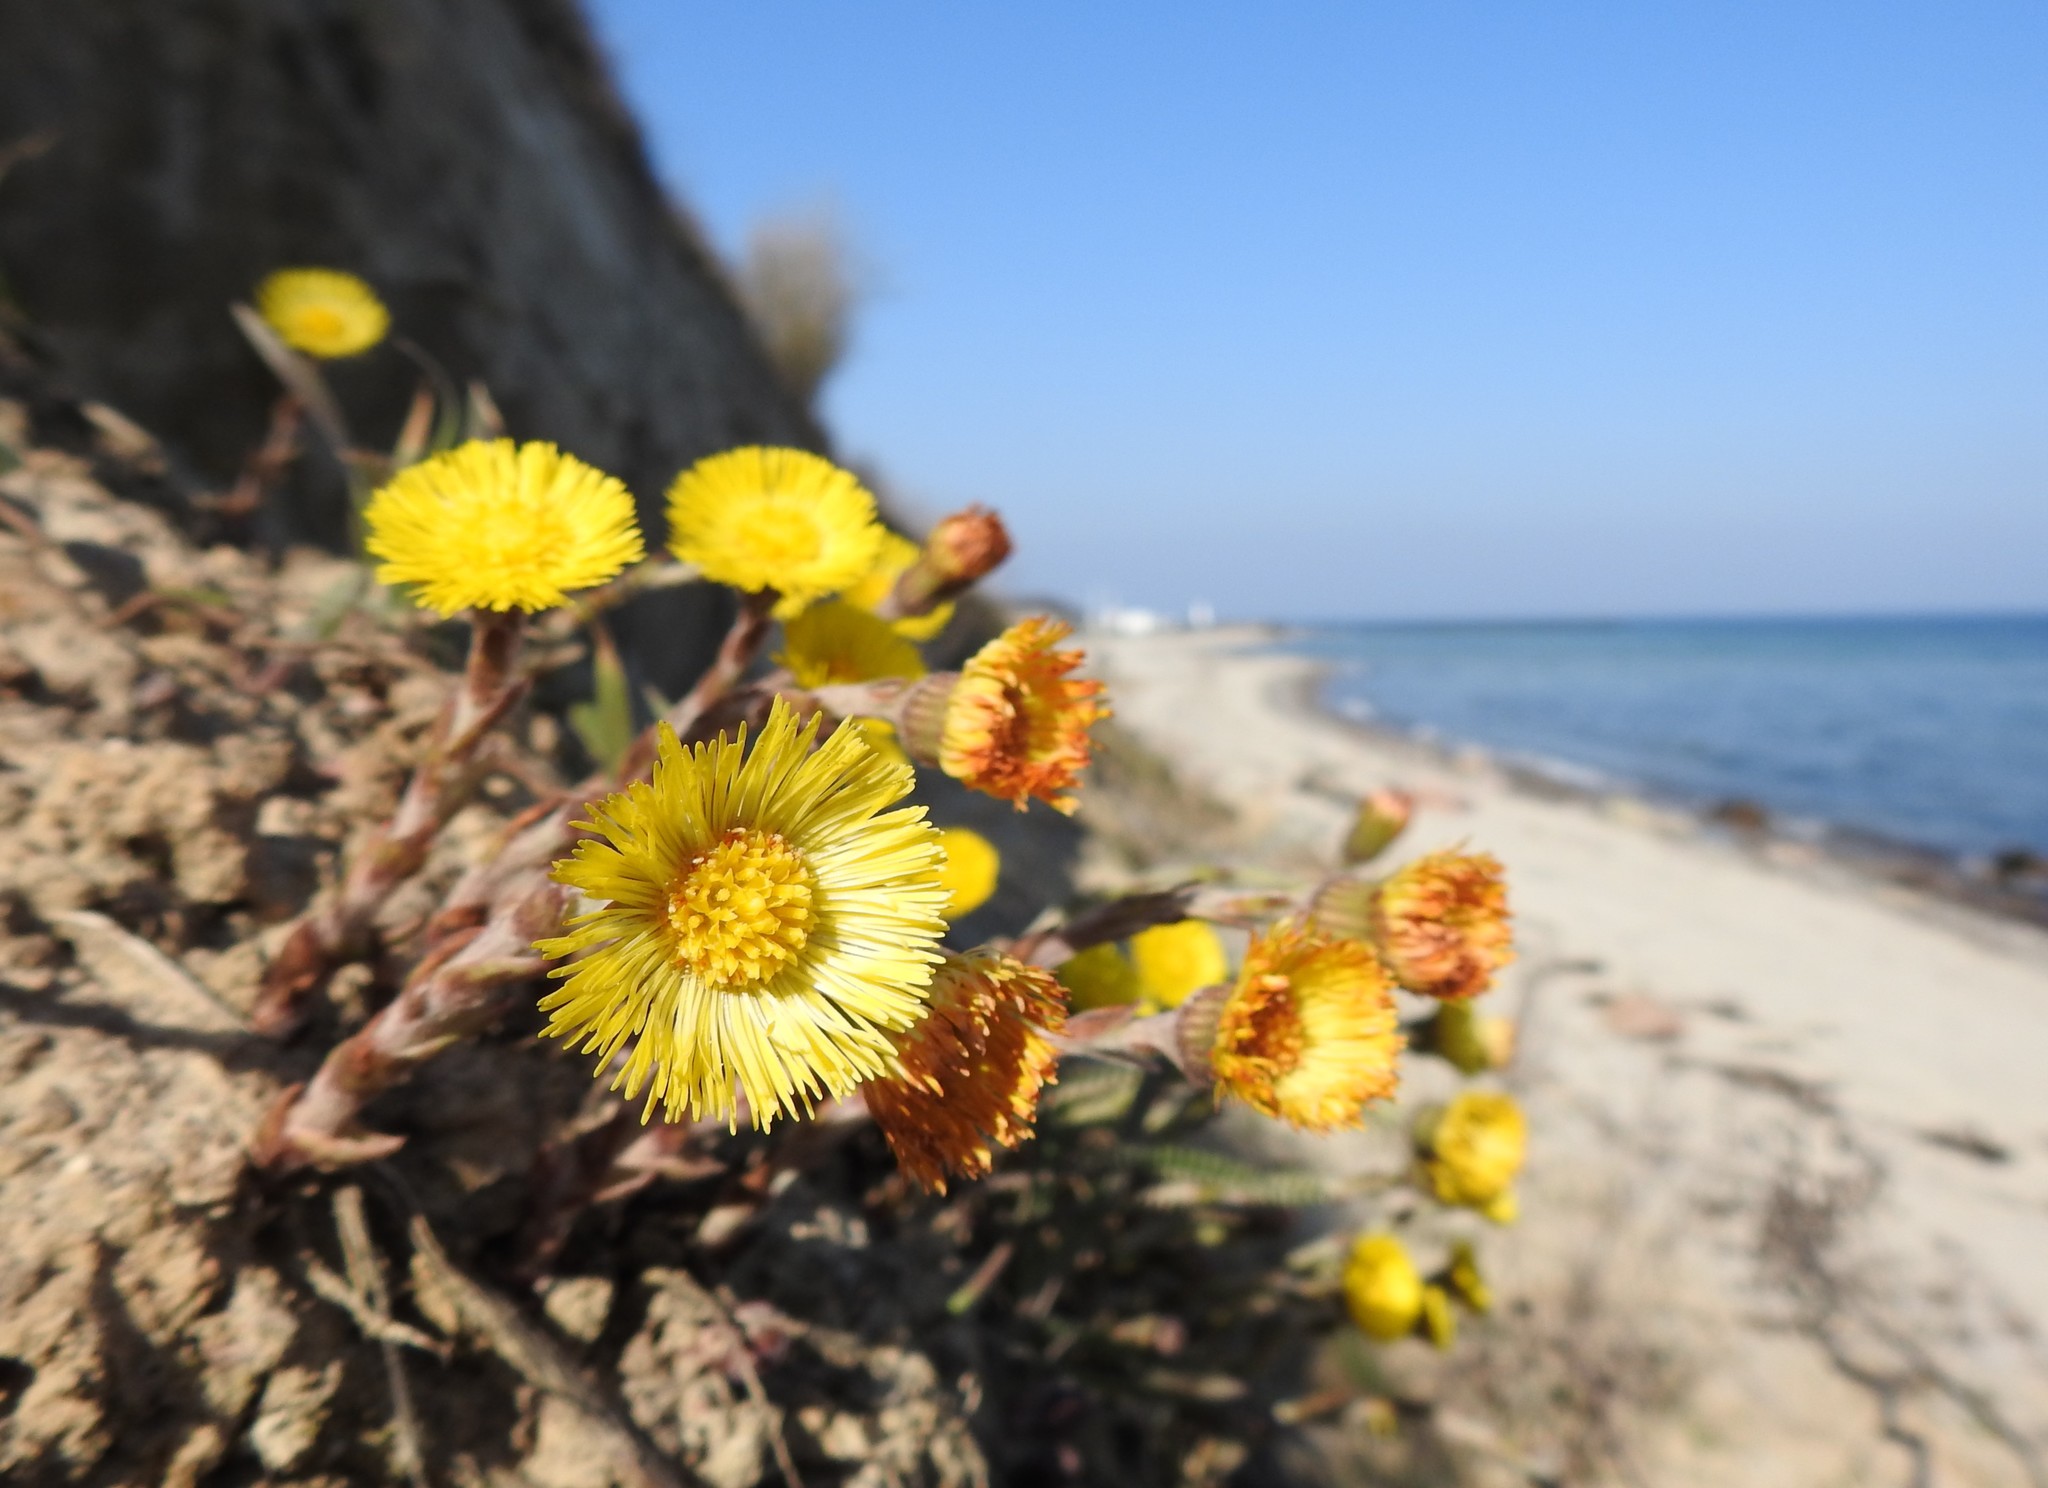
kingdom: Plantae
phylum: Tracheophyta
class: Magnoliopsida
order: Asterales
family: Asteraceae
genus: Tussilago
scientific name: Tussilago farfara
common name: Coltsfoot
